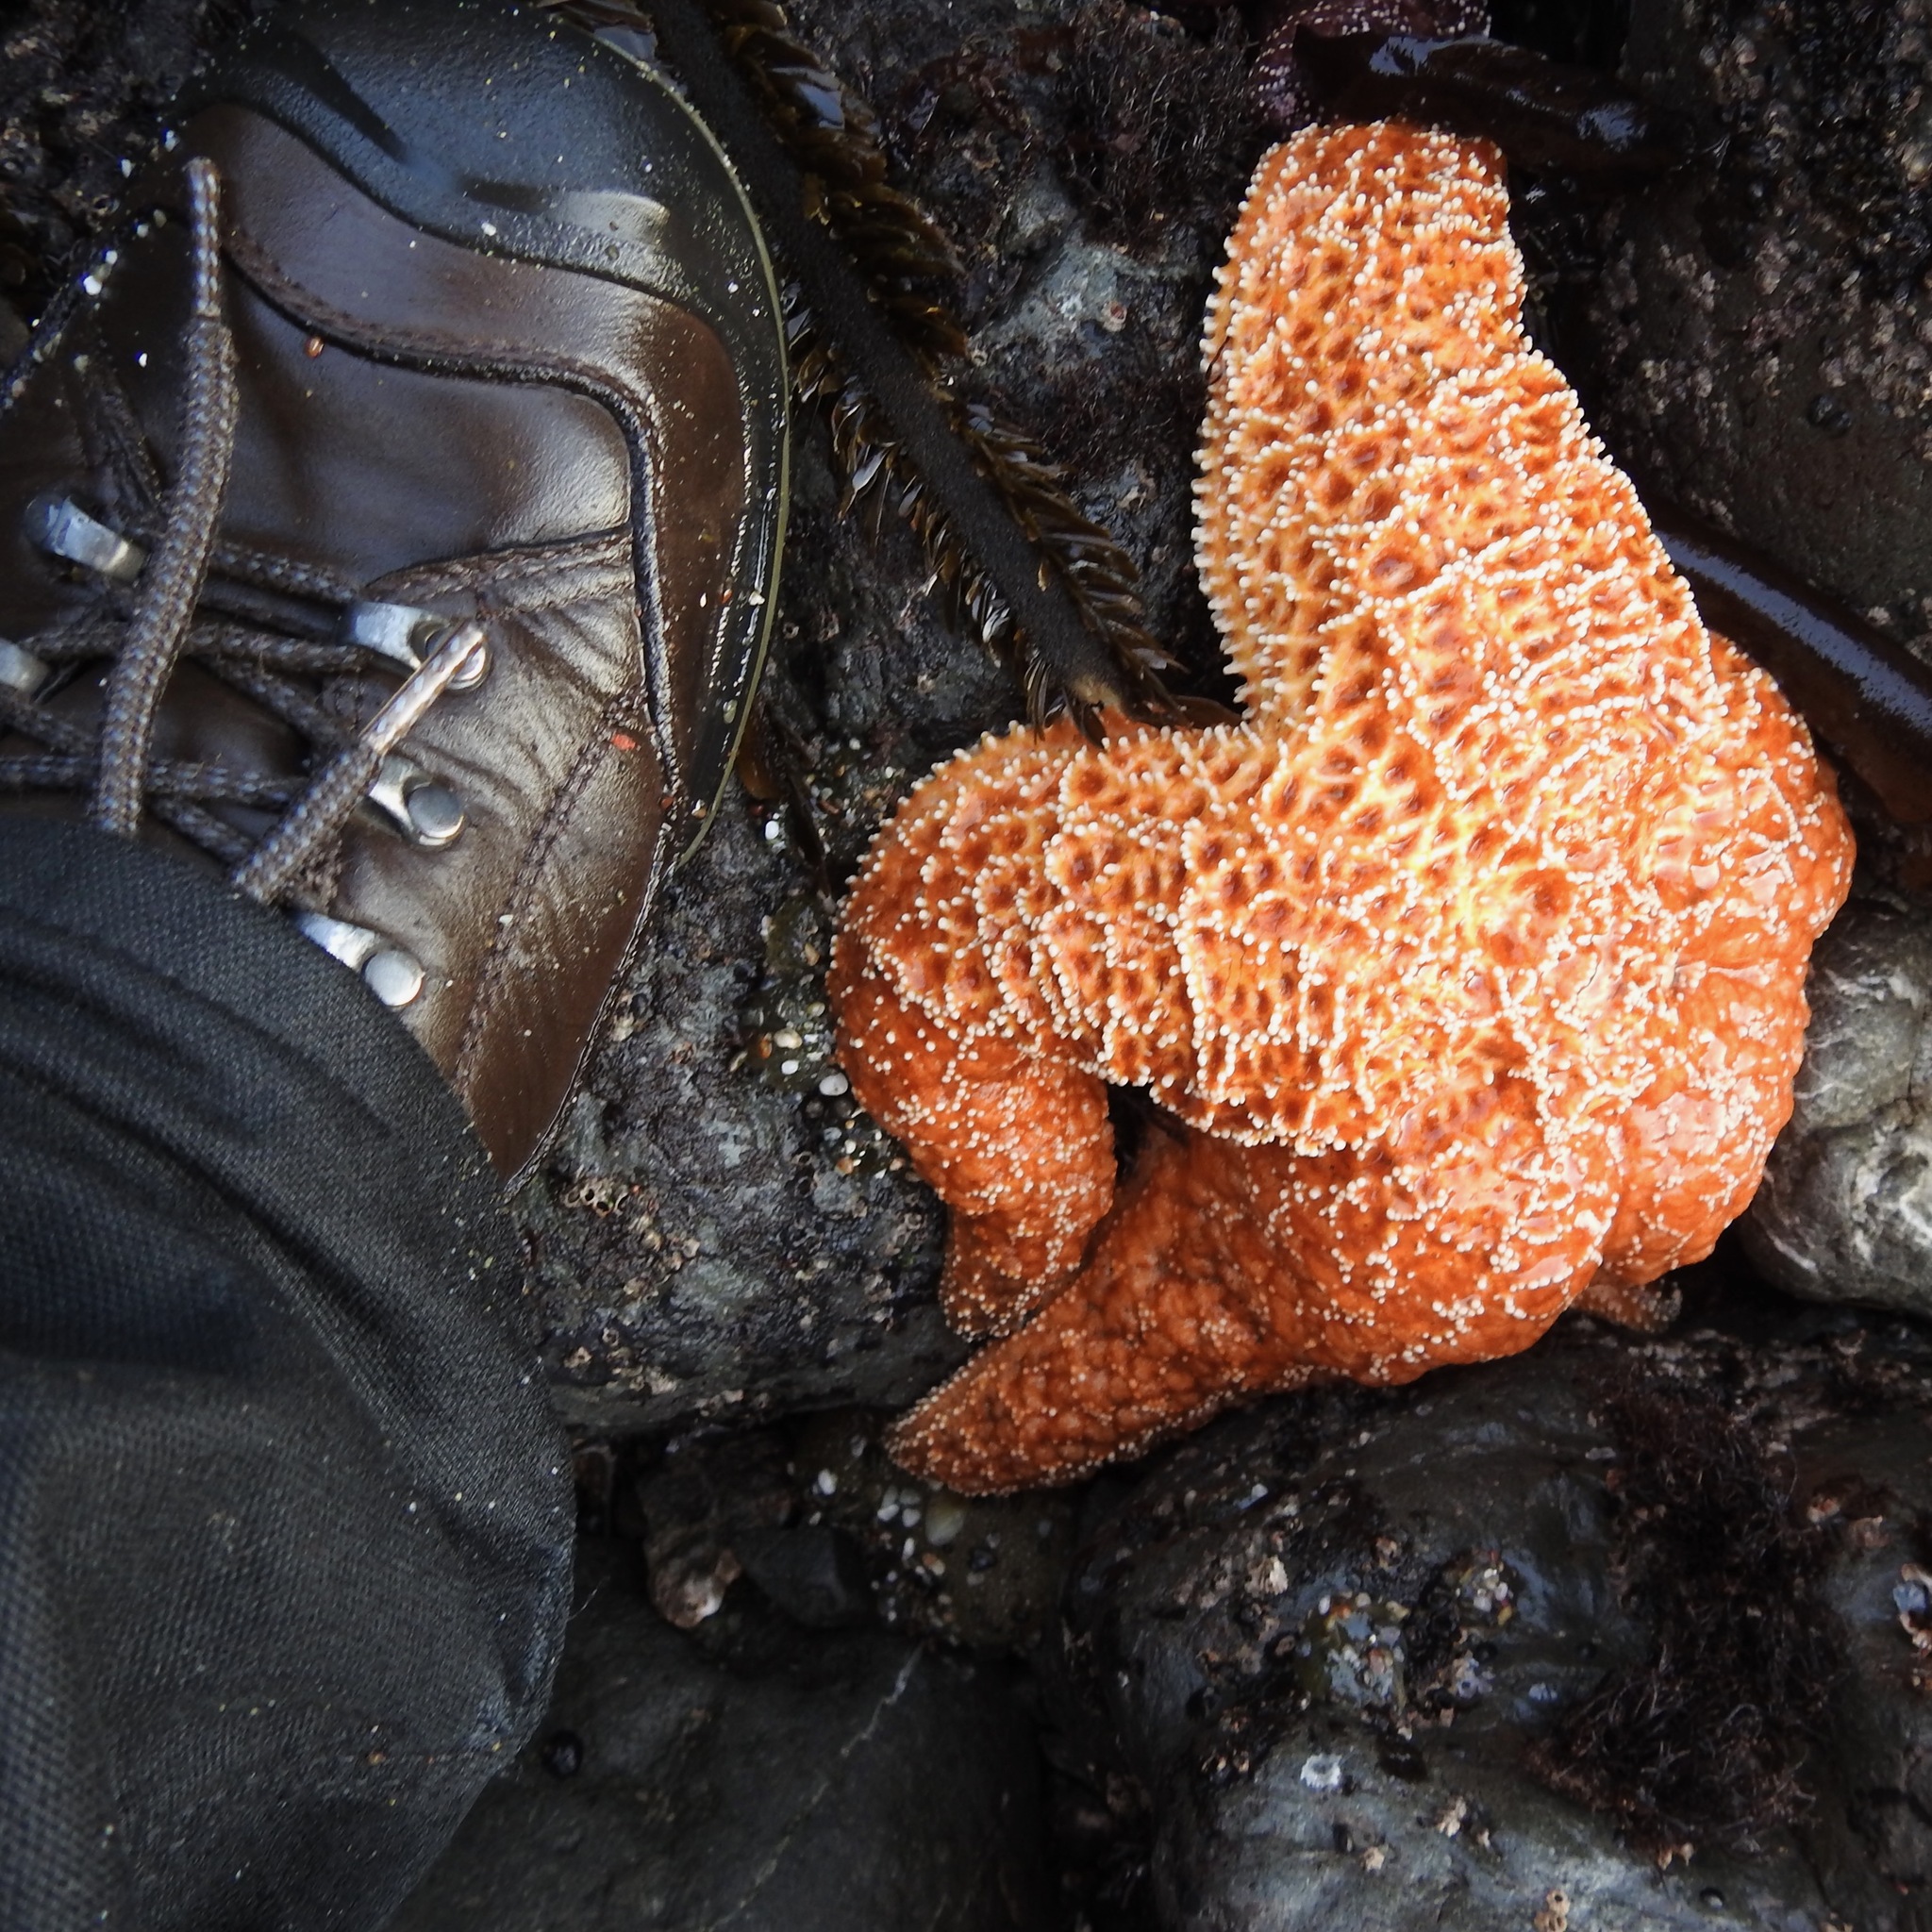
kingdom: Animalia
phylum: Echinodermata
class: Asteroidea
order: Forcipulatida
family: Asteriidae
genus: Pisaster
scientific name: Pisaster ochraceus
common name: Ochre stars
